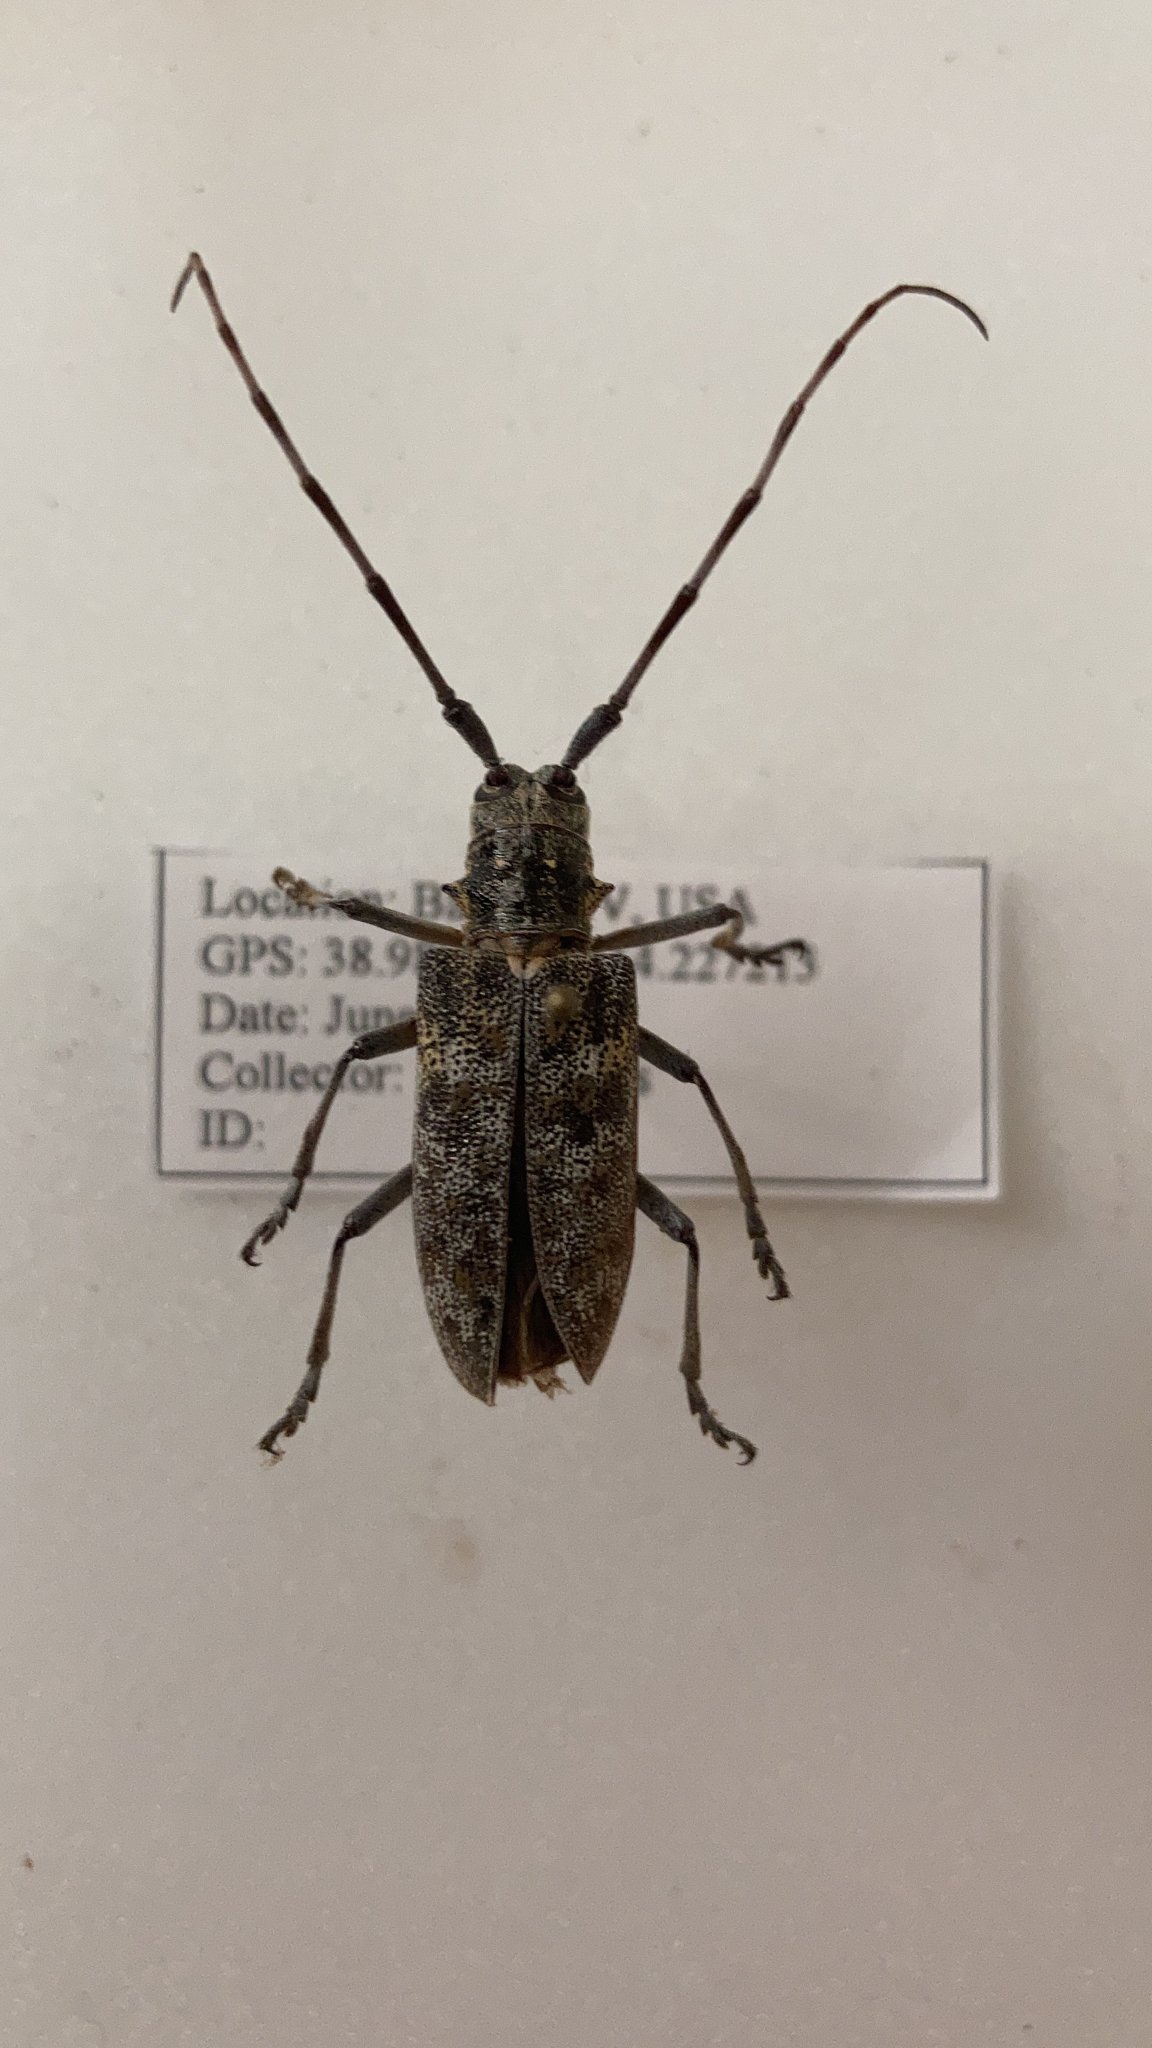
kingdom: Animalia
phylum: Arthropoda
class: Insecta
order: Coleoptera
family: Cerambycidae
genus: Monochamus
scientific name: Monochamus clamator
